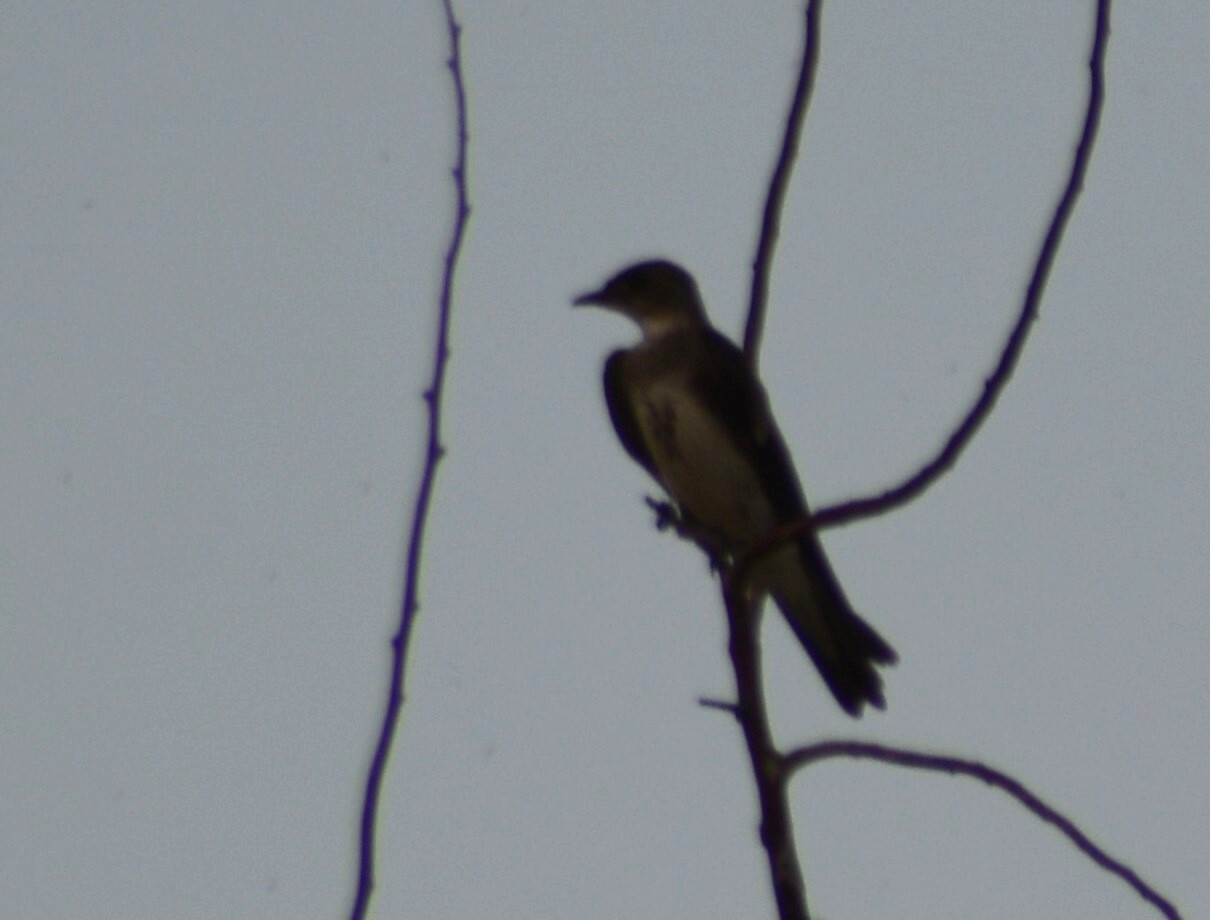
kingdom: Animalia
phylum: Chordata
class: Aves
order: Passeriformes
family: Hirundinidae
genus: Progne
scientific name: Progne tapera
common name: Brown-chested martin
